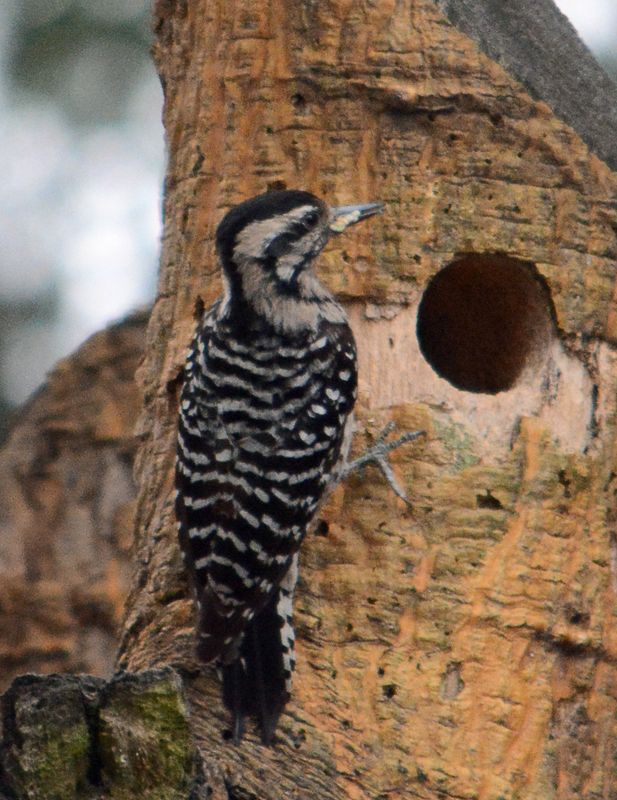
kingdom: Animalia
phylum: Chordata
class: Aves
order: Piciformes
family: Picidae
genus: Dryobates
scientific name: Dryobates scalaris
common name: Ladder-backed woodpecker
